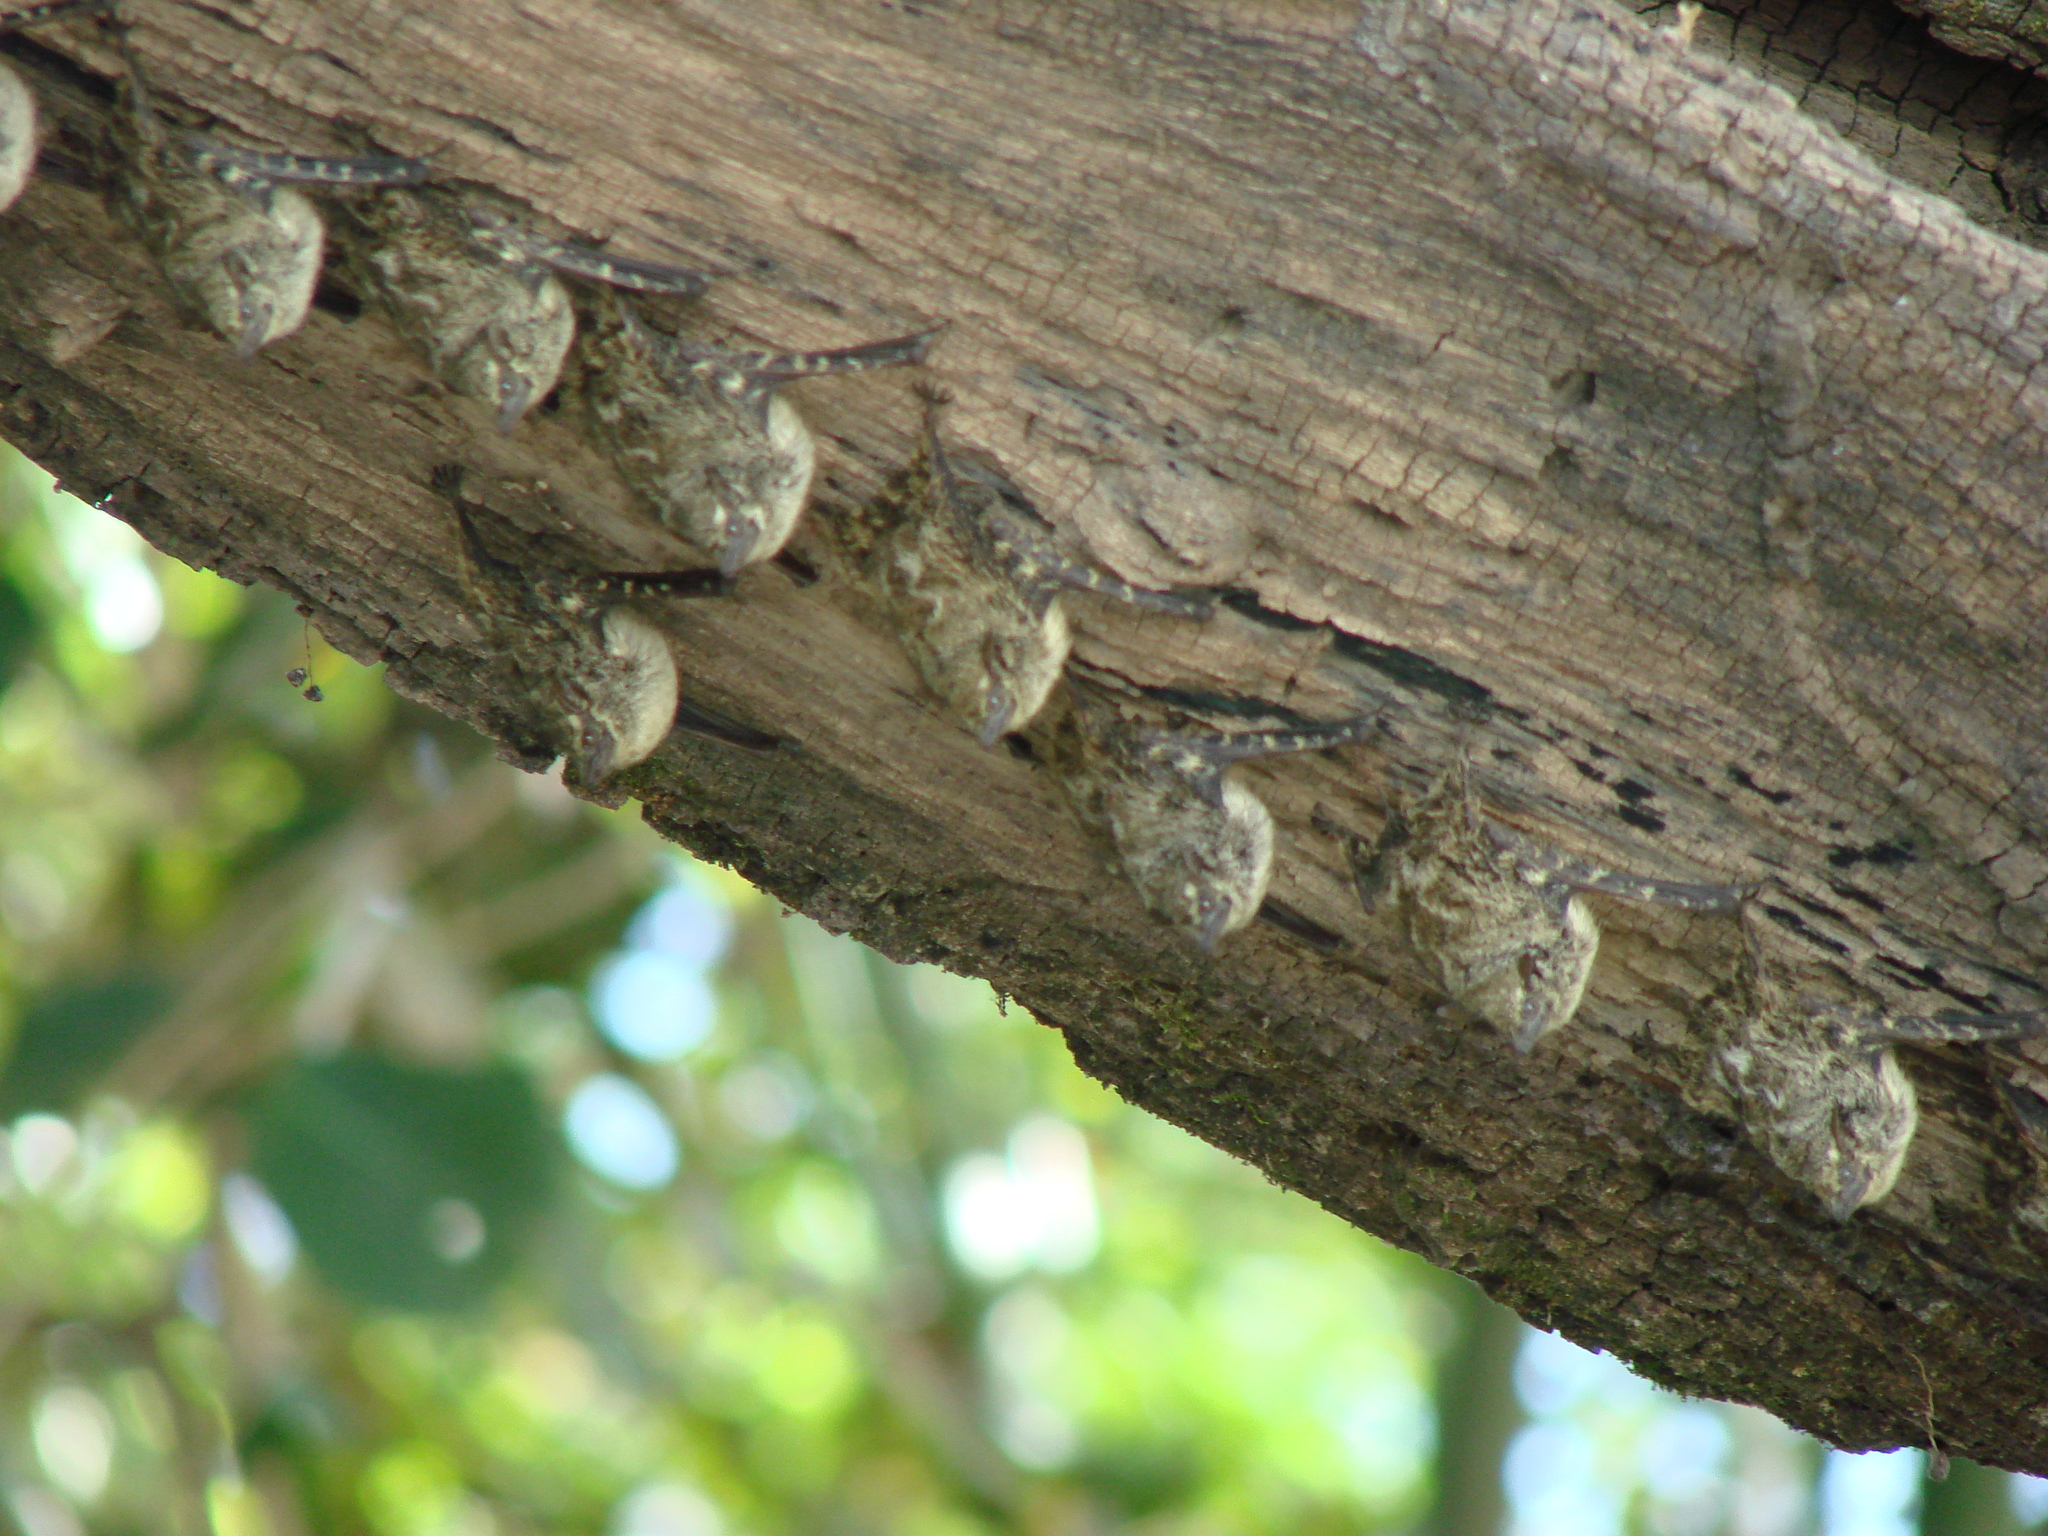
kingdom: Animalia
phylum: Chordata
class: Mammalia
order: Chiroptera
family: Emballonuridae
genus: Rhynchonycteris
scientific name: Rhynchonycteris naso
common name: Proboscis bat
